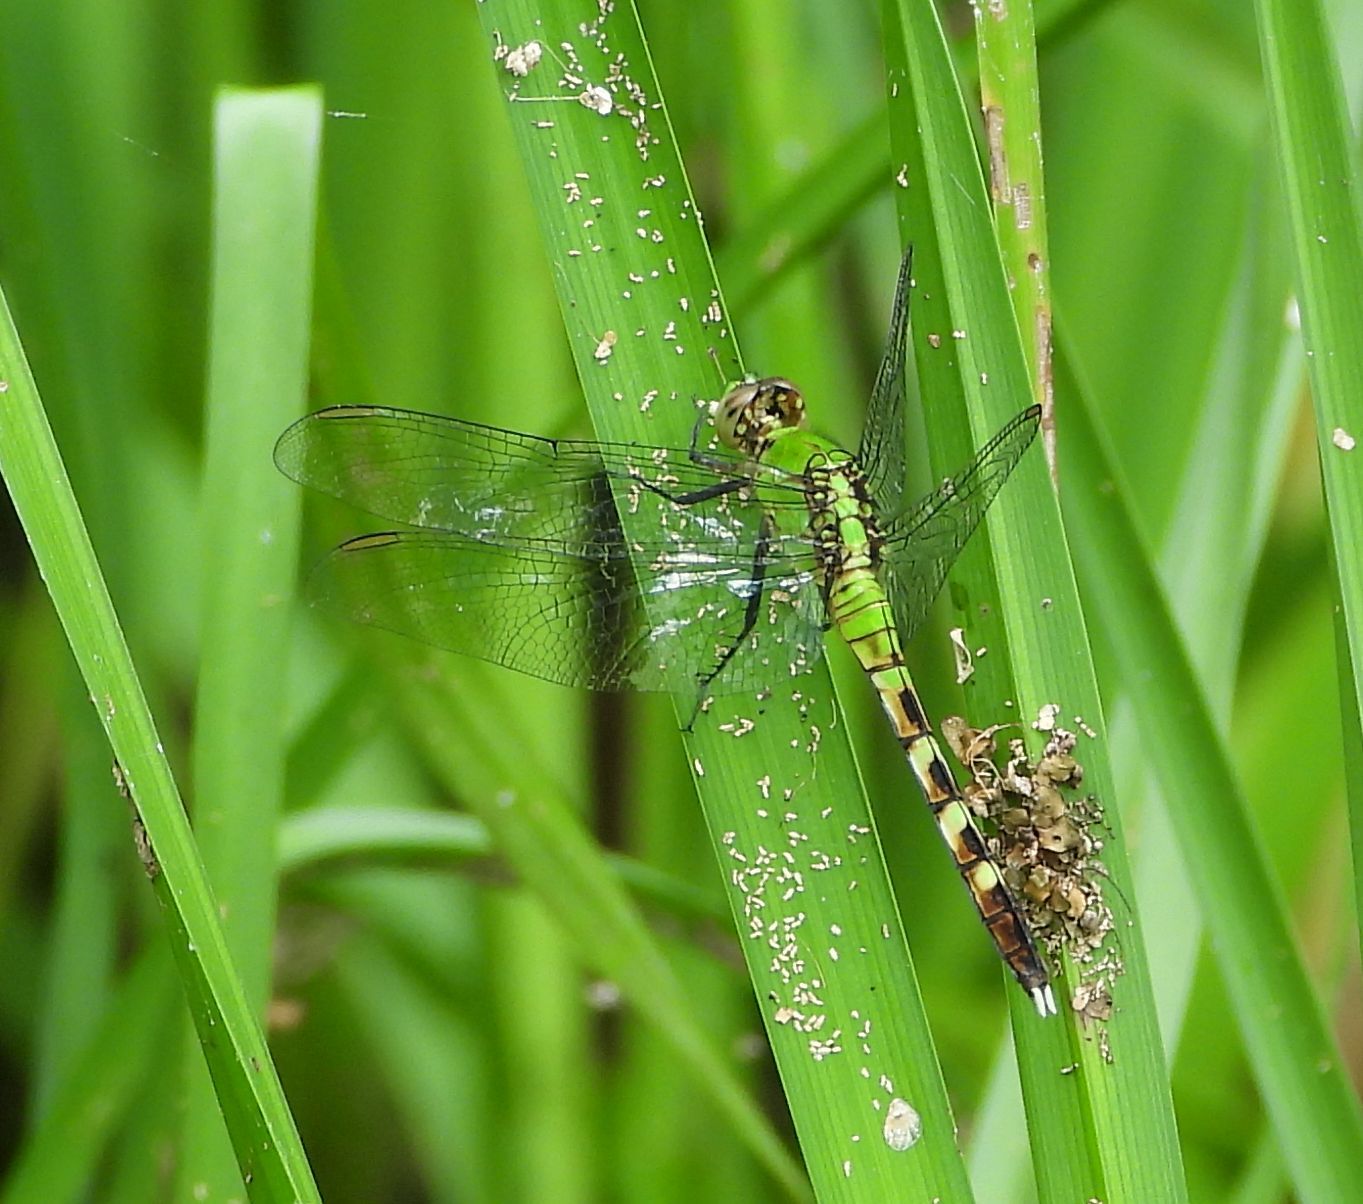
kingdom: Animalia
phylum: Arthropoda
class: Insecta
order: Odonata
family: Libellulidae
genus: Erythemis
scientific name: Erythemis simplicicollis
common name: Eastern pondhawk
